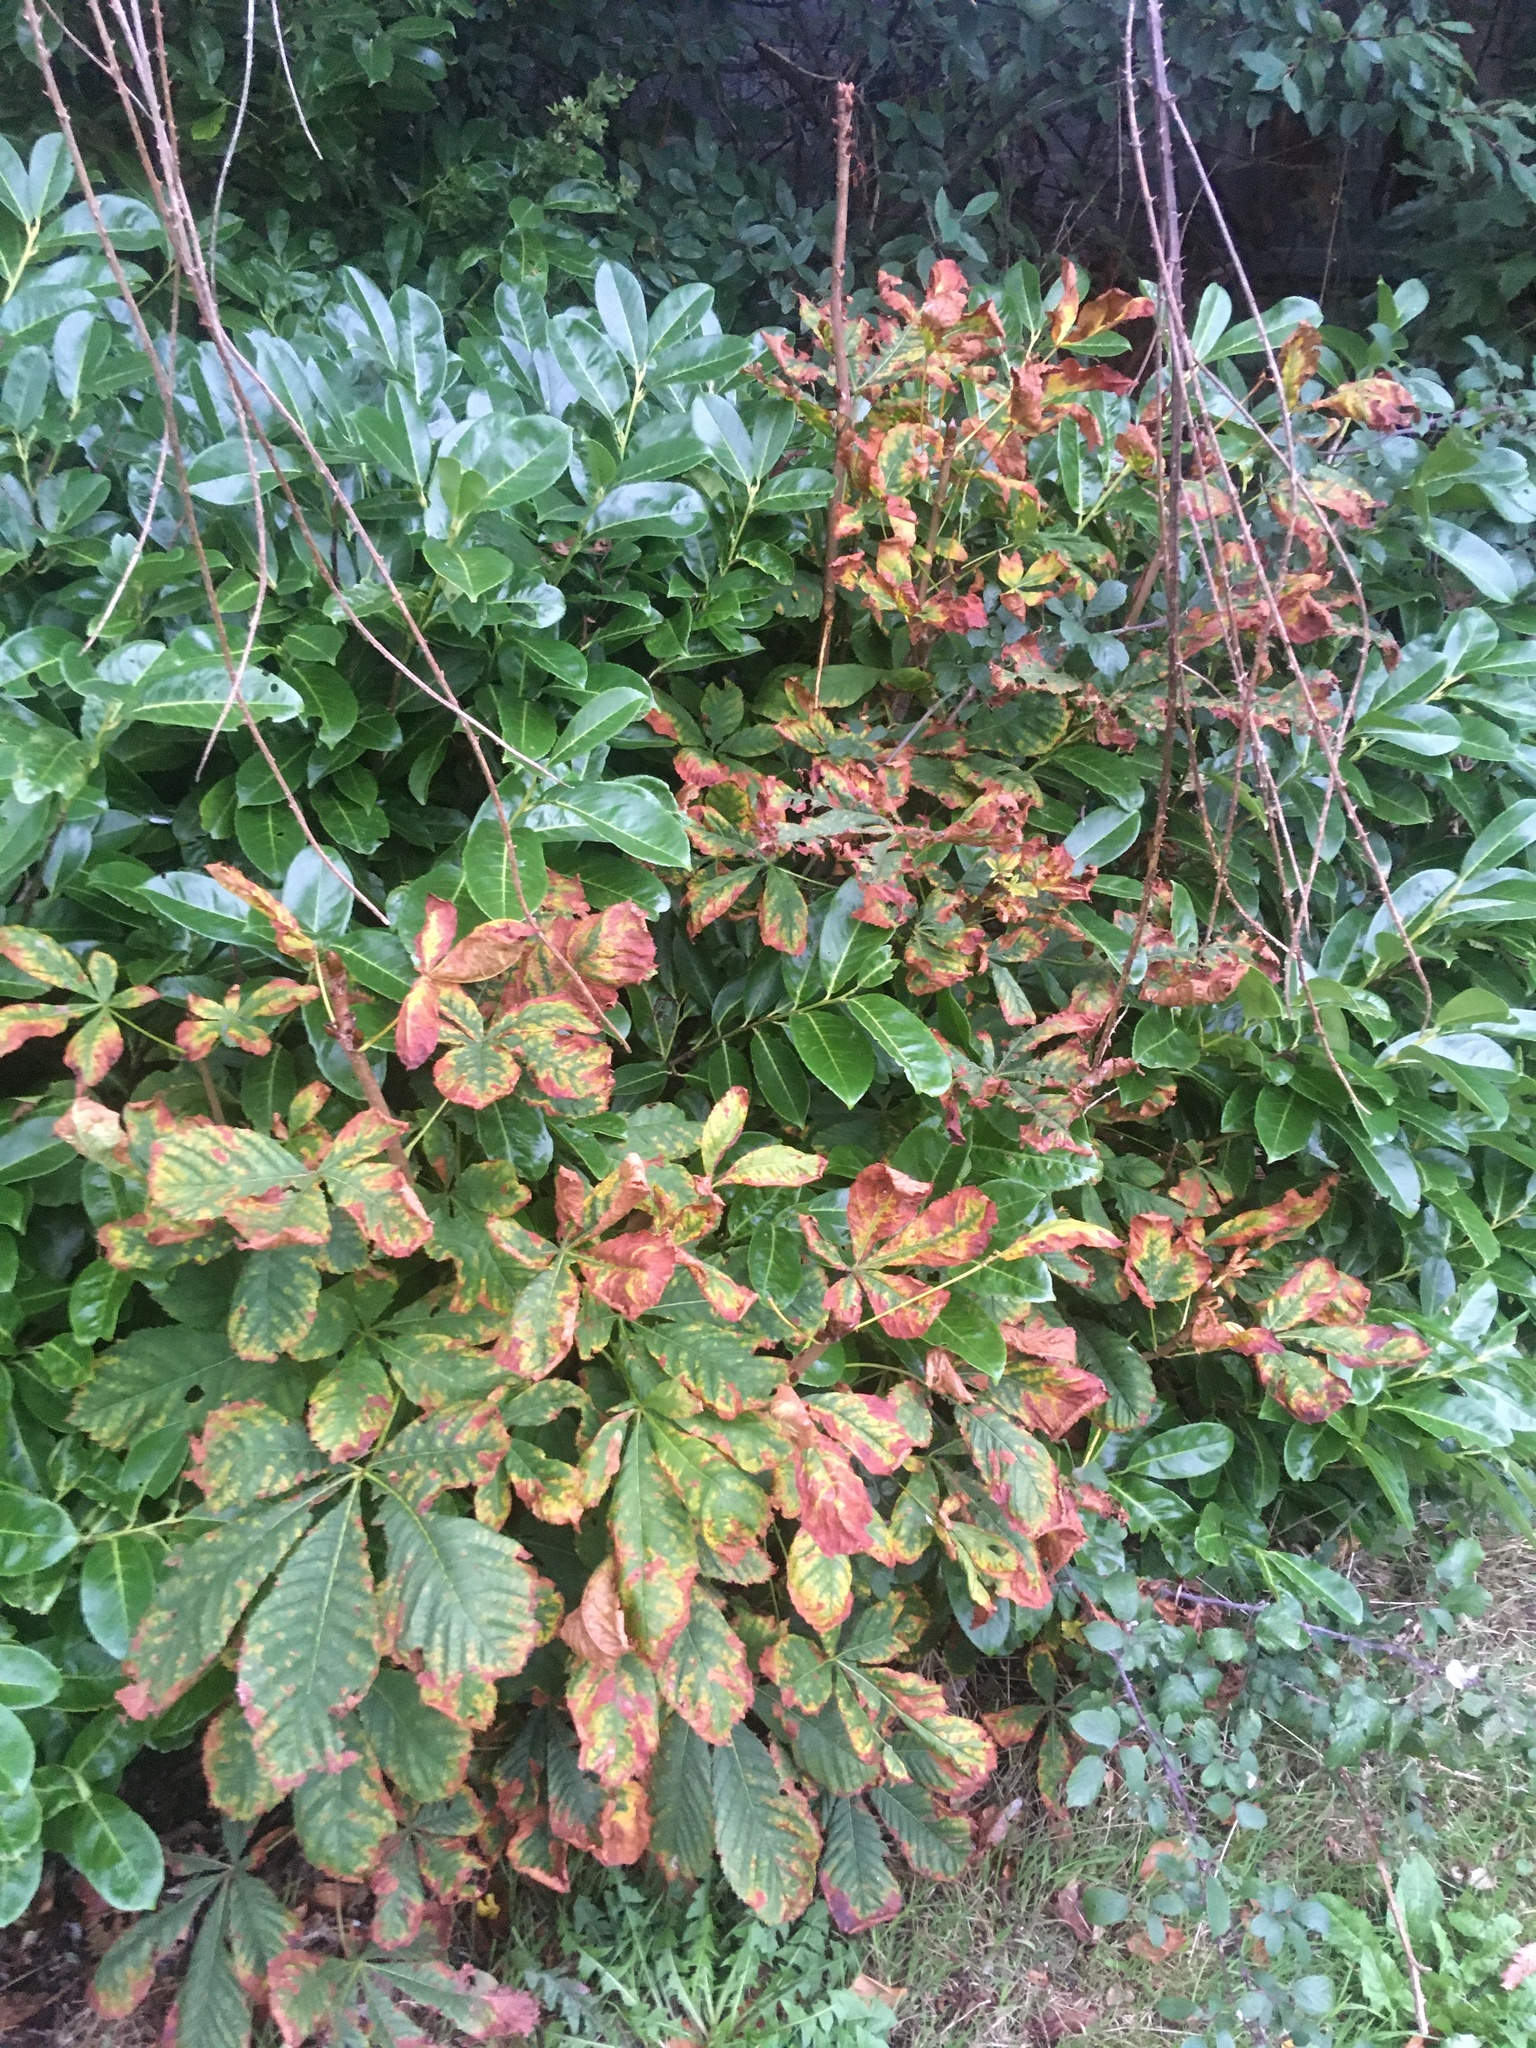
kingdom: Plantae
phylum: Tracheophyta
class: Magnoliopsida
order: Sapindales
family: Sapindaceae
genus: Aesculus
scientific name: Aesculus hippocastanum
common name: Horse-chestnut
